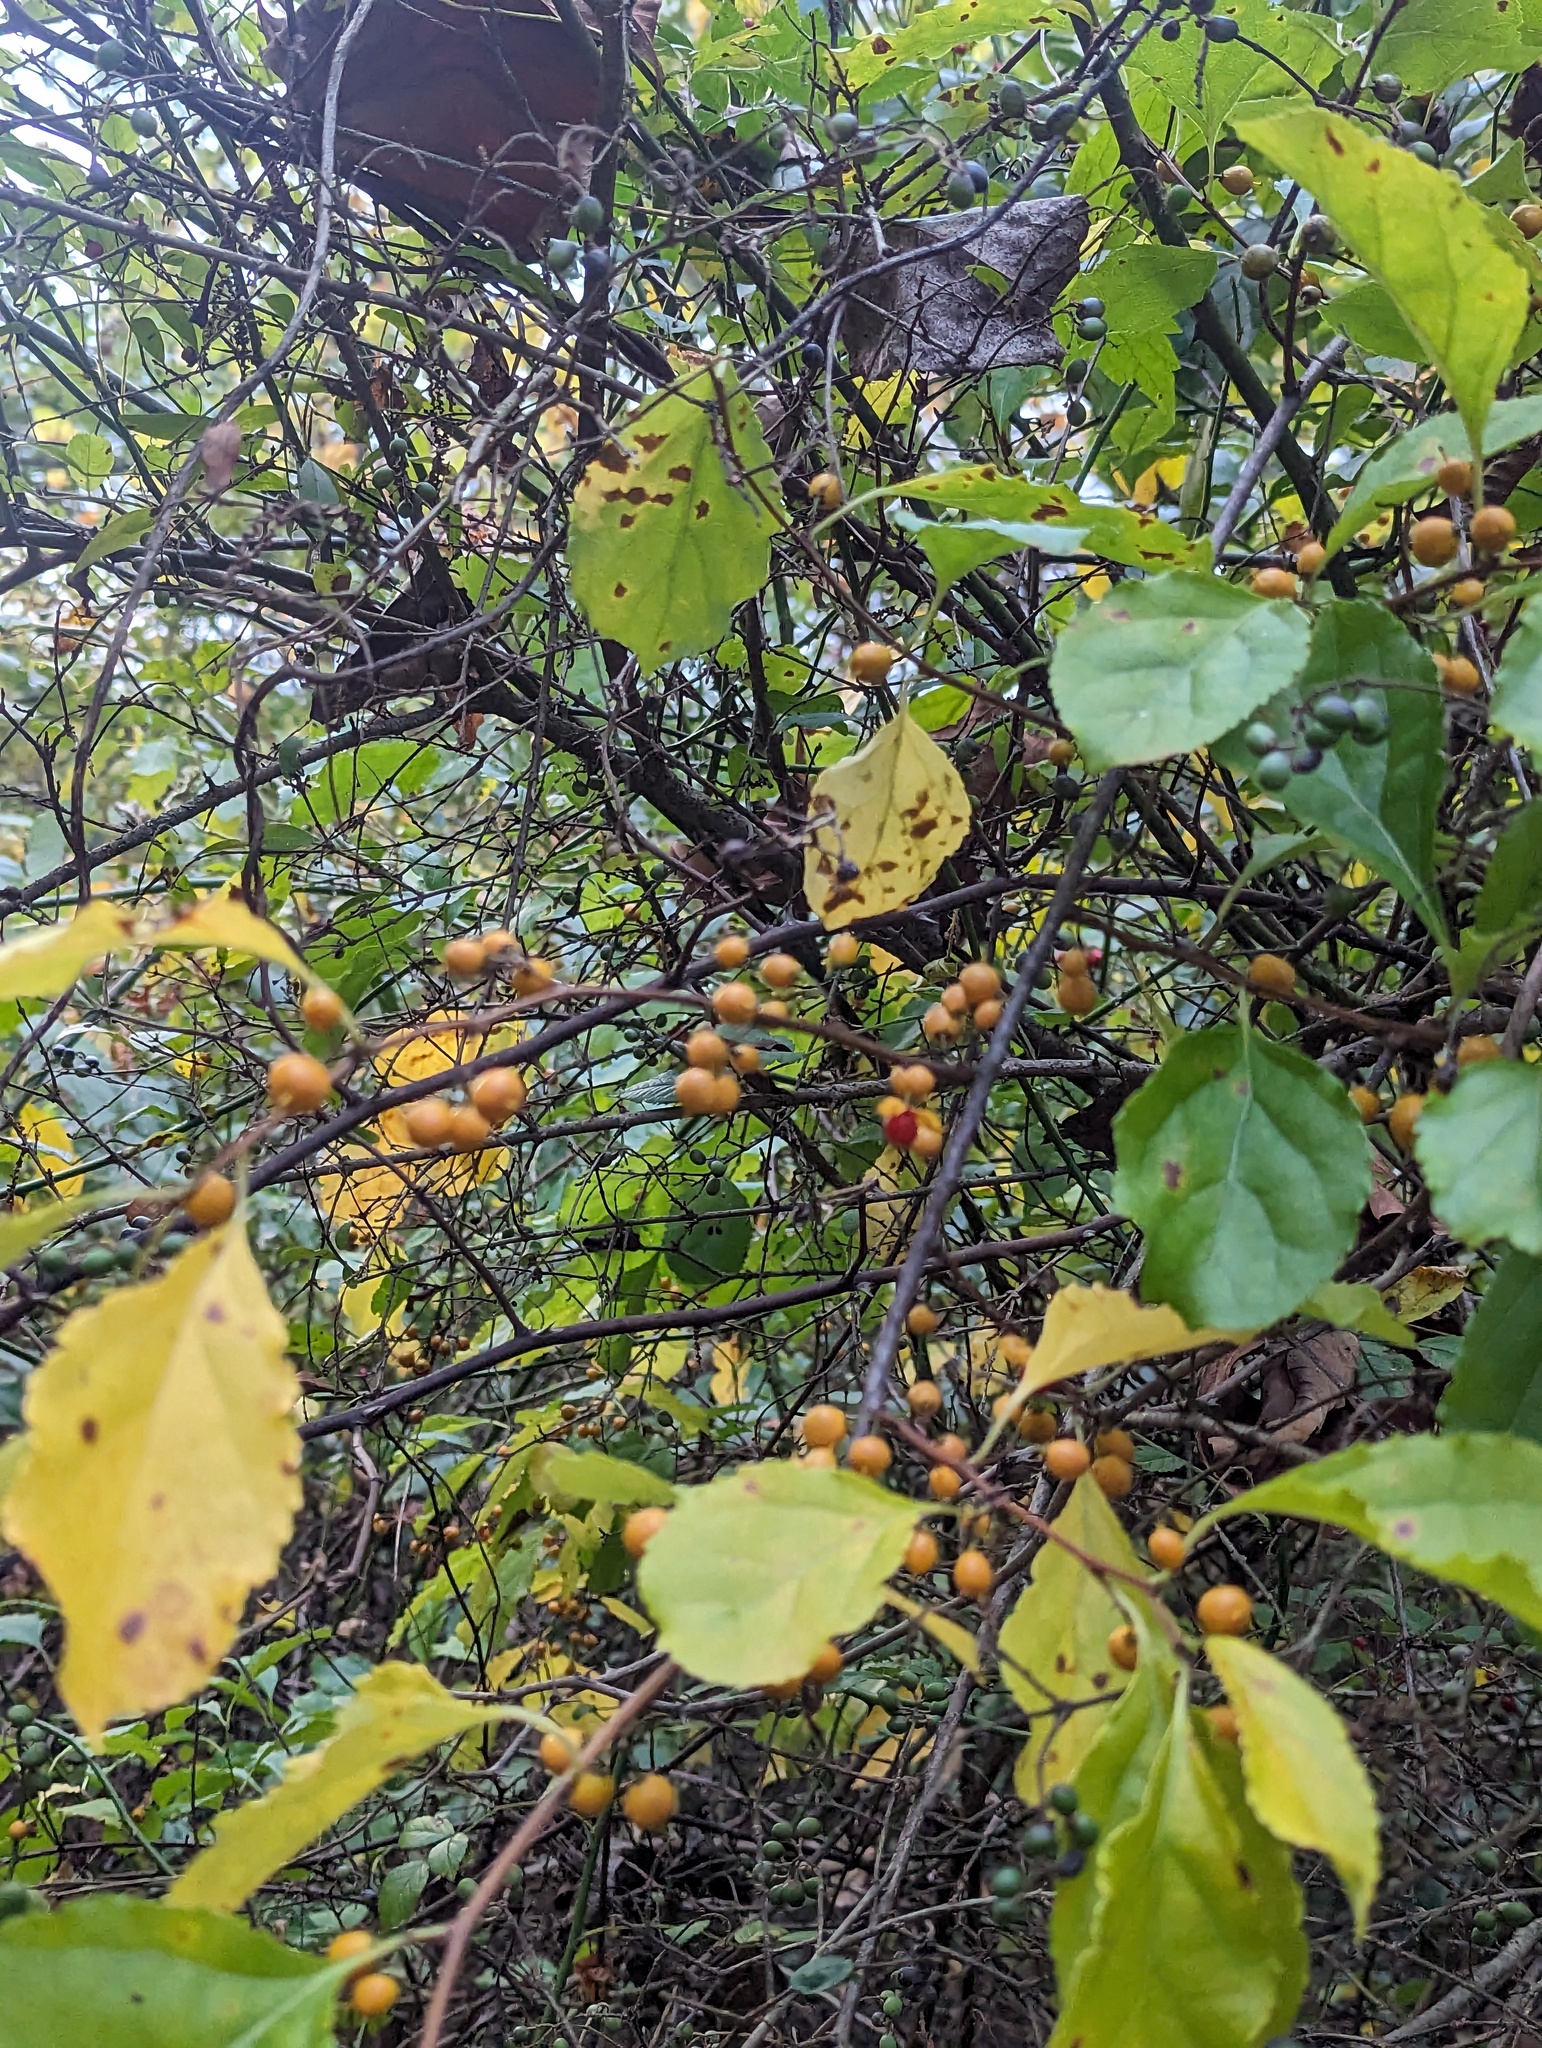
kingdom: Plantae
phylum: Tracheophyta
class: Magnoliopsida
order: Celastrales
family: Celastraceae
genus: Celastrus
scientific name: Celastrus orbiculatus
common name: Oriental bittersweet
